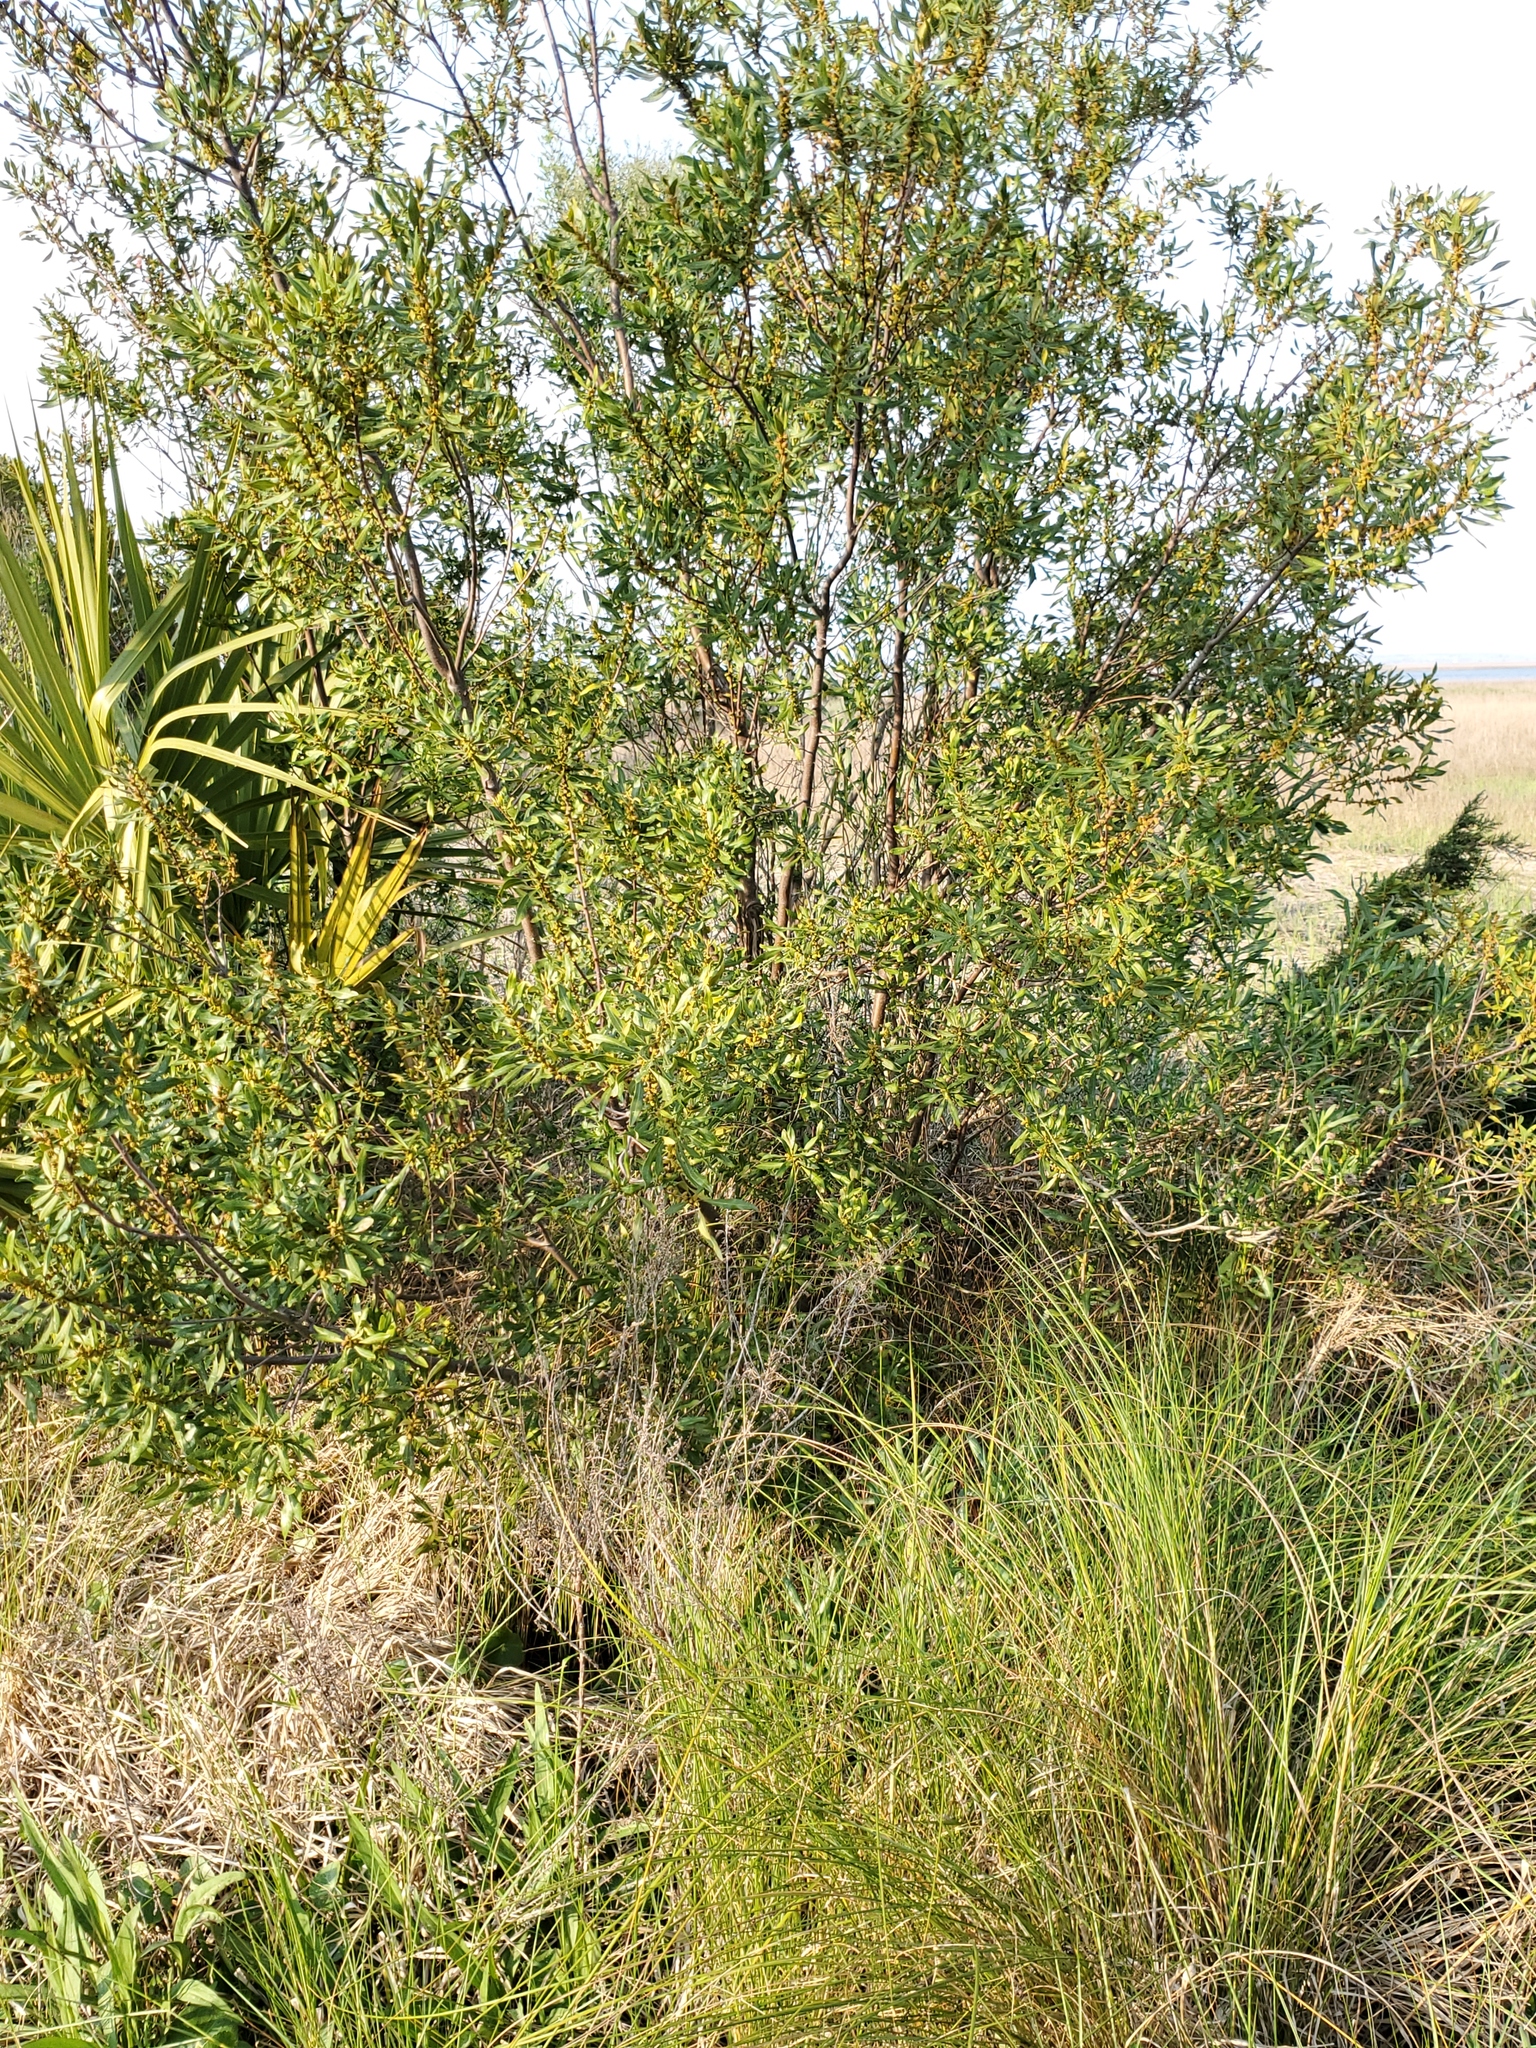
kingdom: Plantae
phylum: Tracheophyta
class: Magnoliopsida
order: Fagales
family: Myricaceae
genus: Morella
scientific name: Morella cerifera
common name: Wax myrtle
